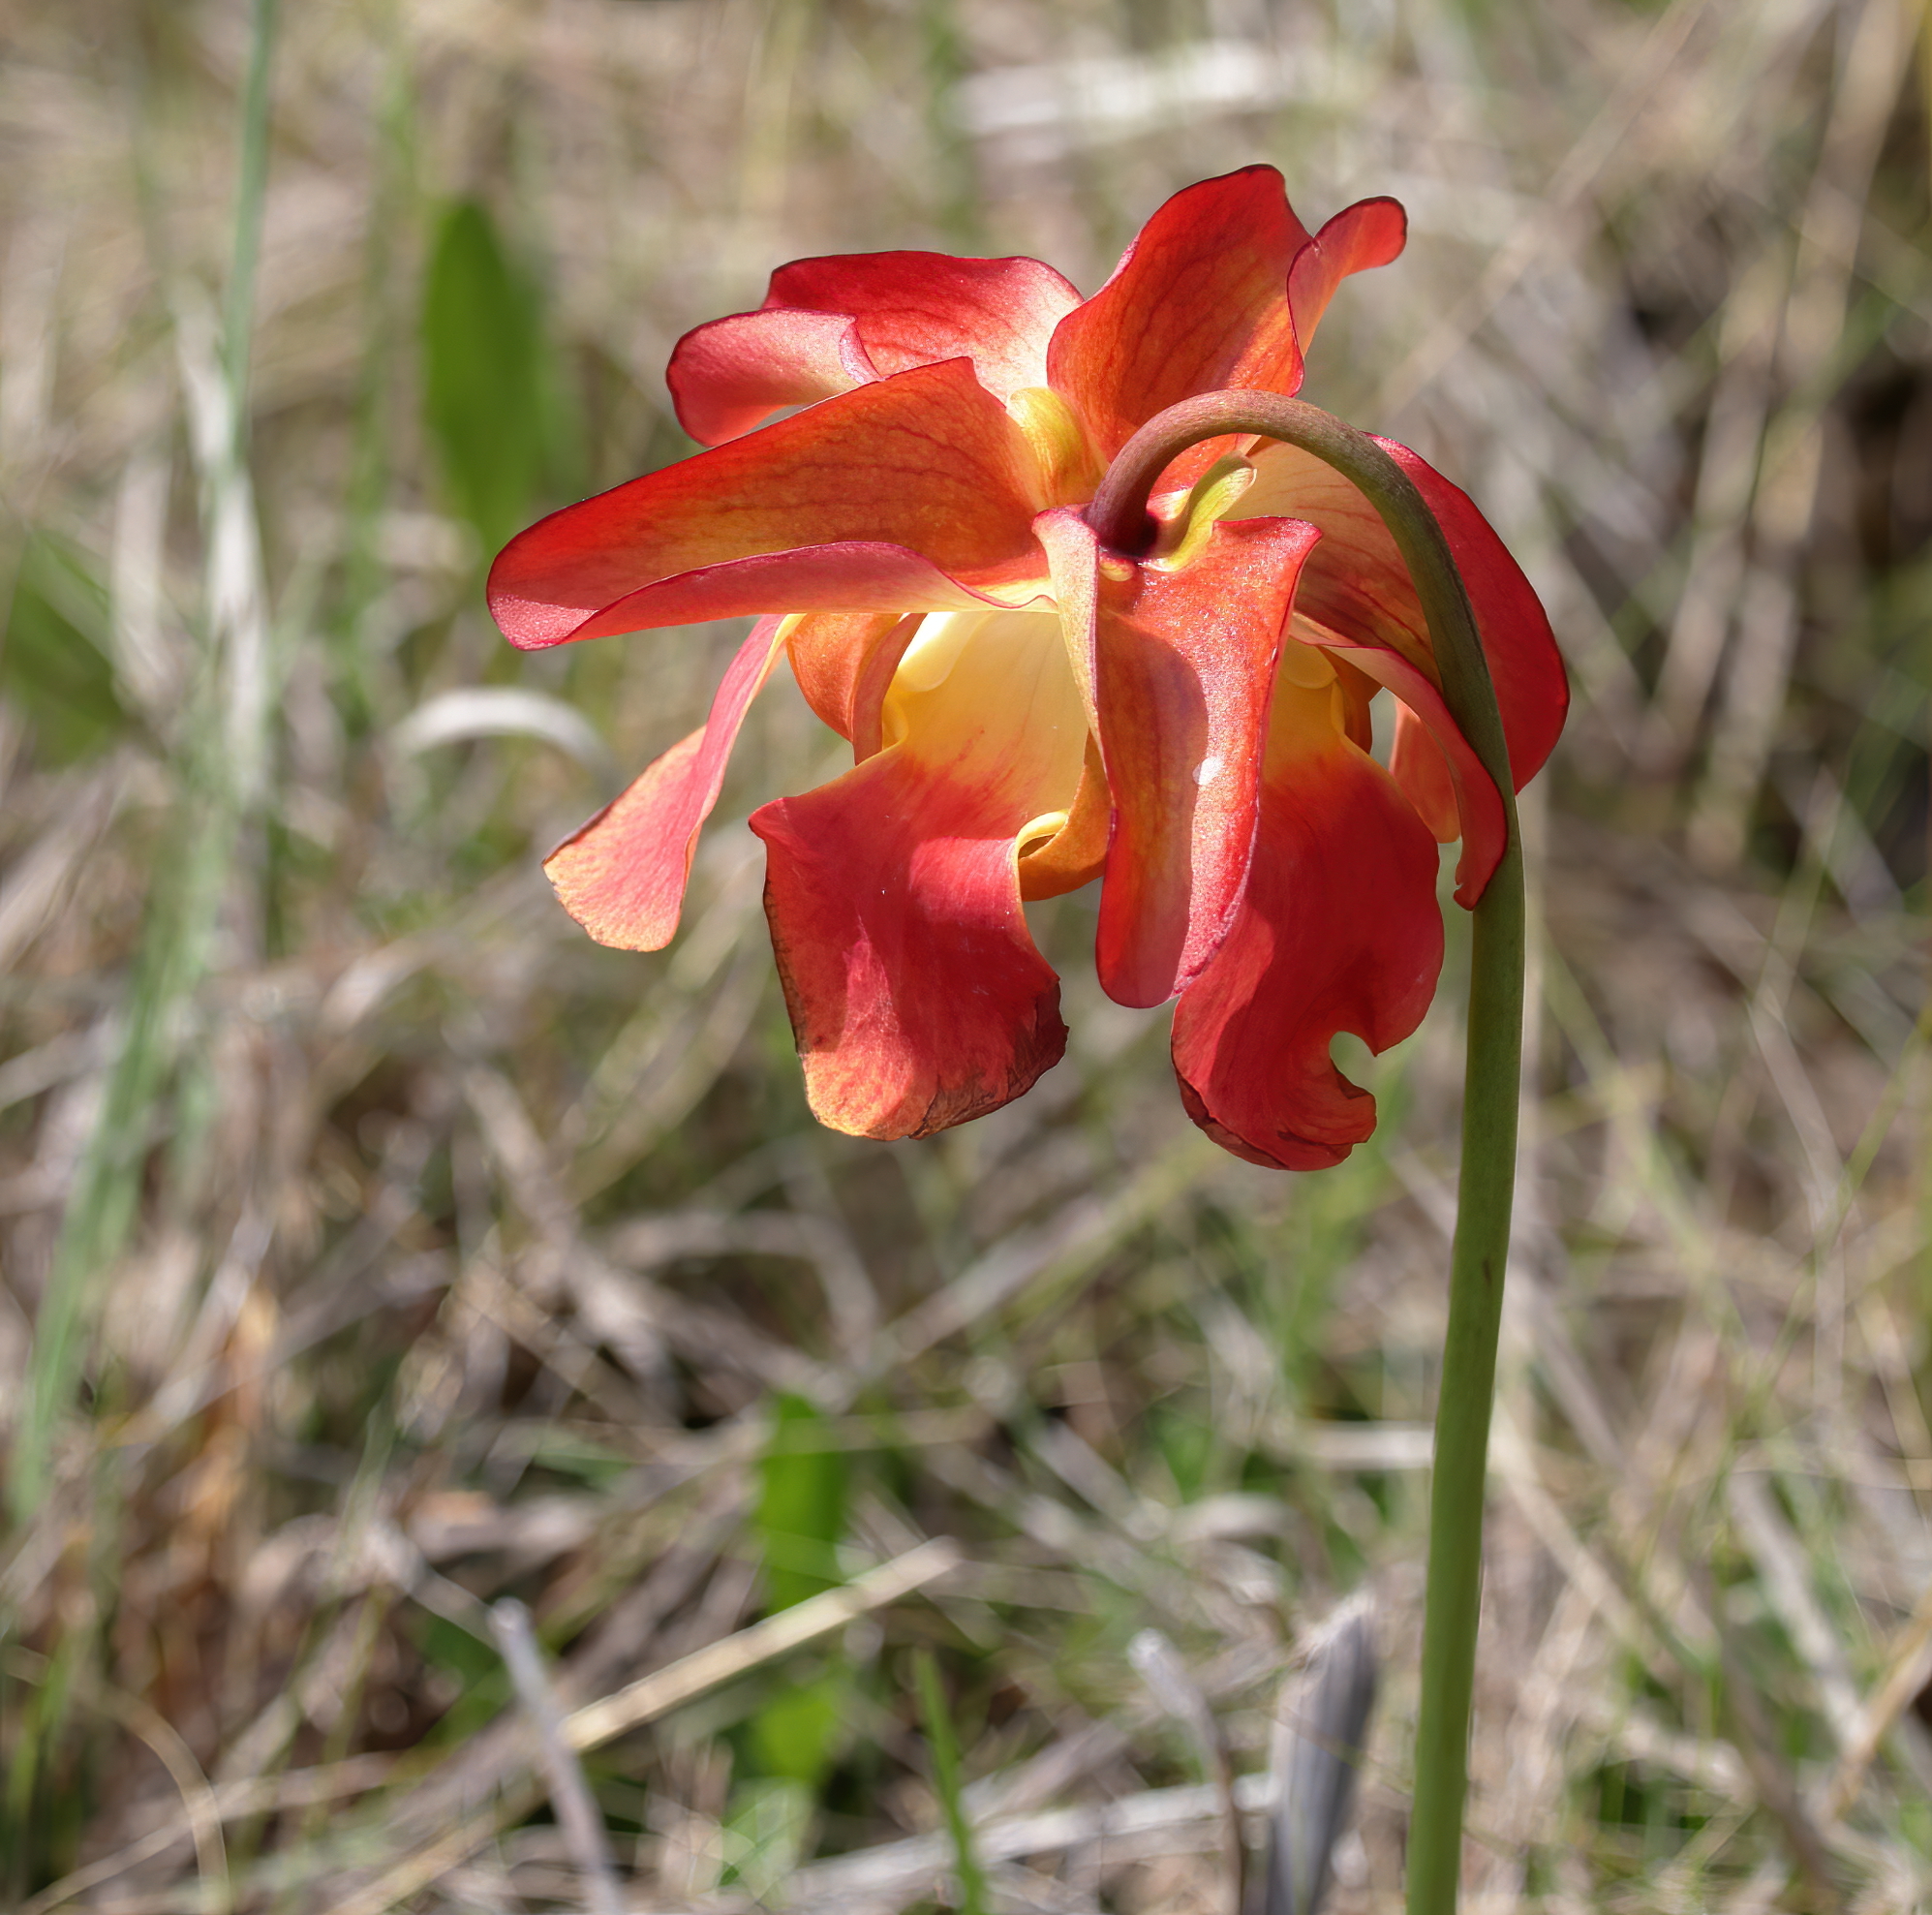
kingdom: Plantae
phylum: Tracheophyta
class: Magnoliopsida
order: Ericales
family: Sarraceniaceae
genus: Sarracenia
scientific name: Sarracenia areolata
